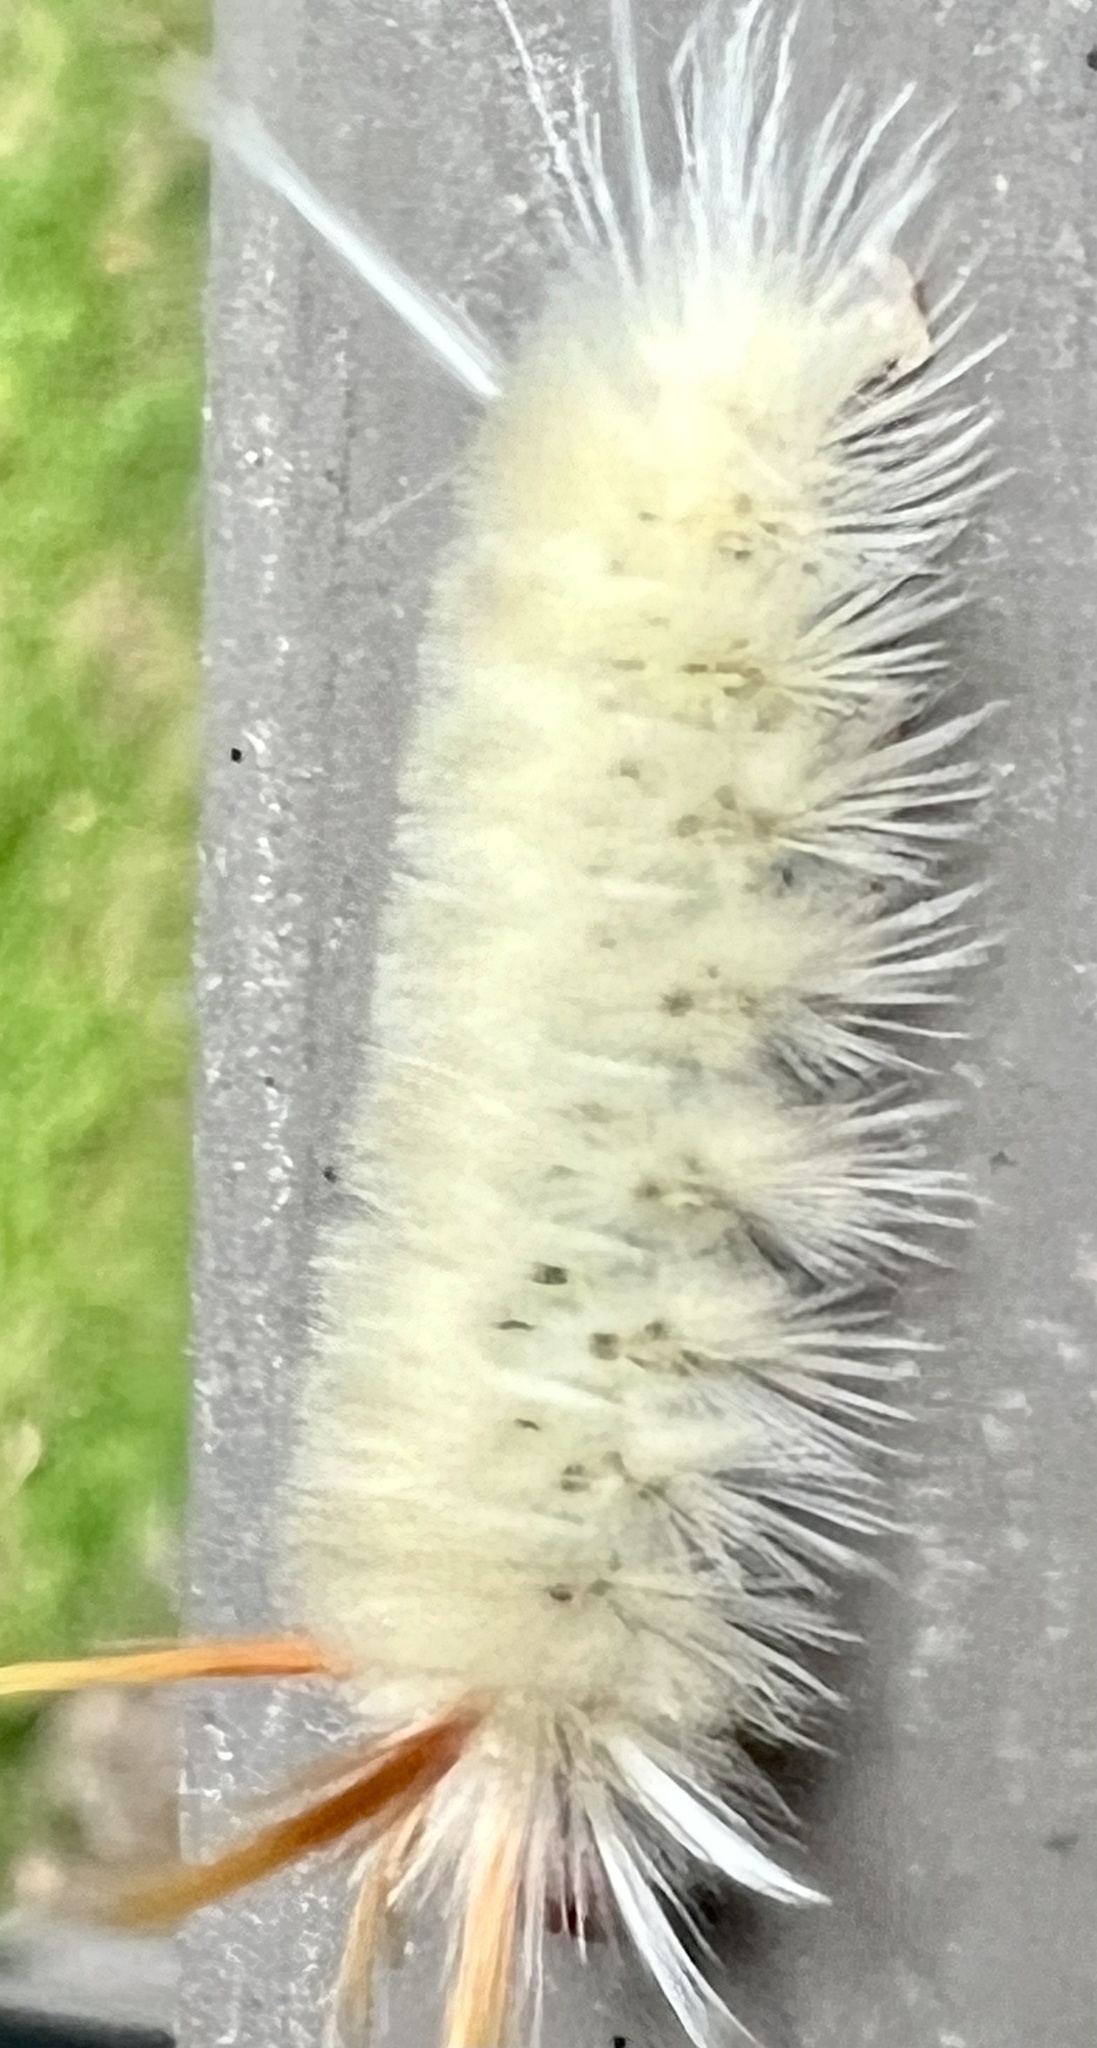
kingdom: Animalia
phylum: Arthropoda
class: Insecta
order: Lepidoptera
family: Erebidae
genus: Halysidota
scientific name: Halysidota harrisii
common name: Sycamore tussock moth
